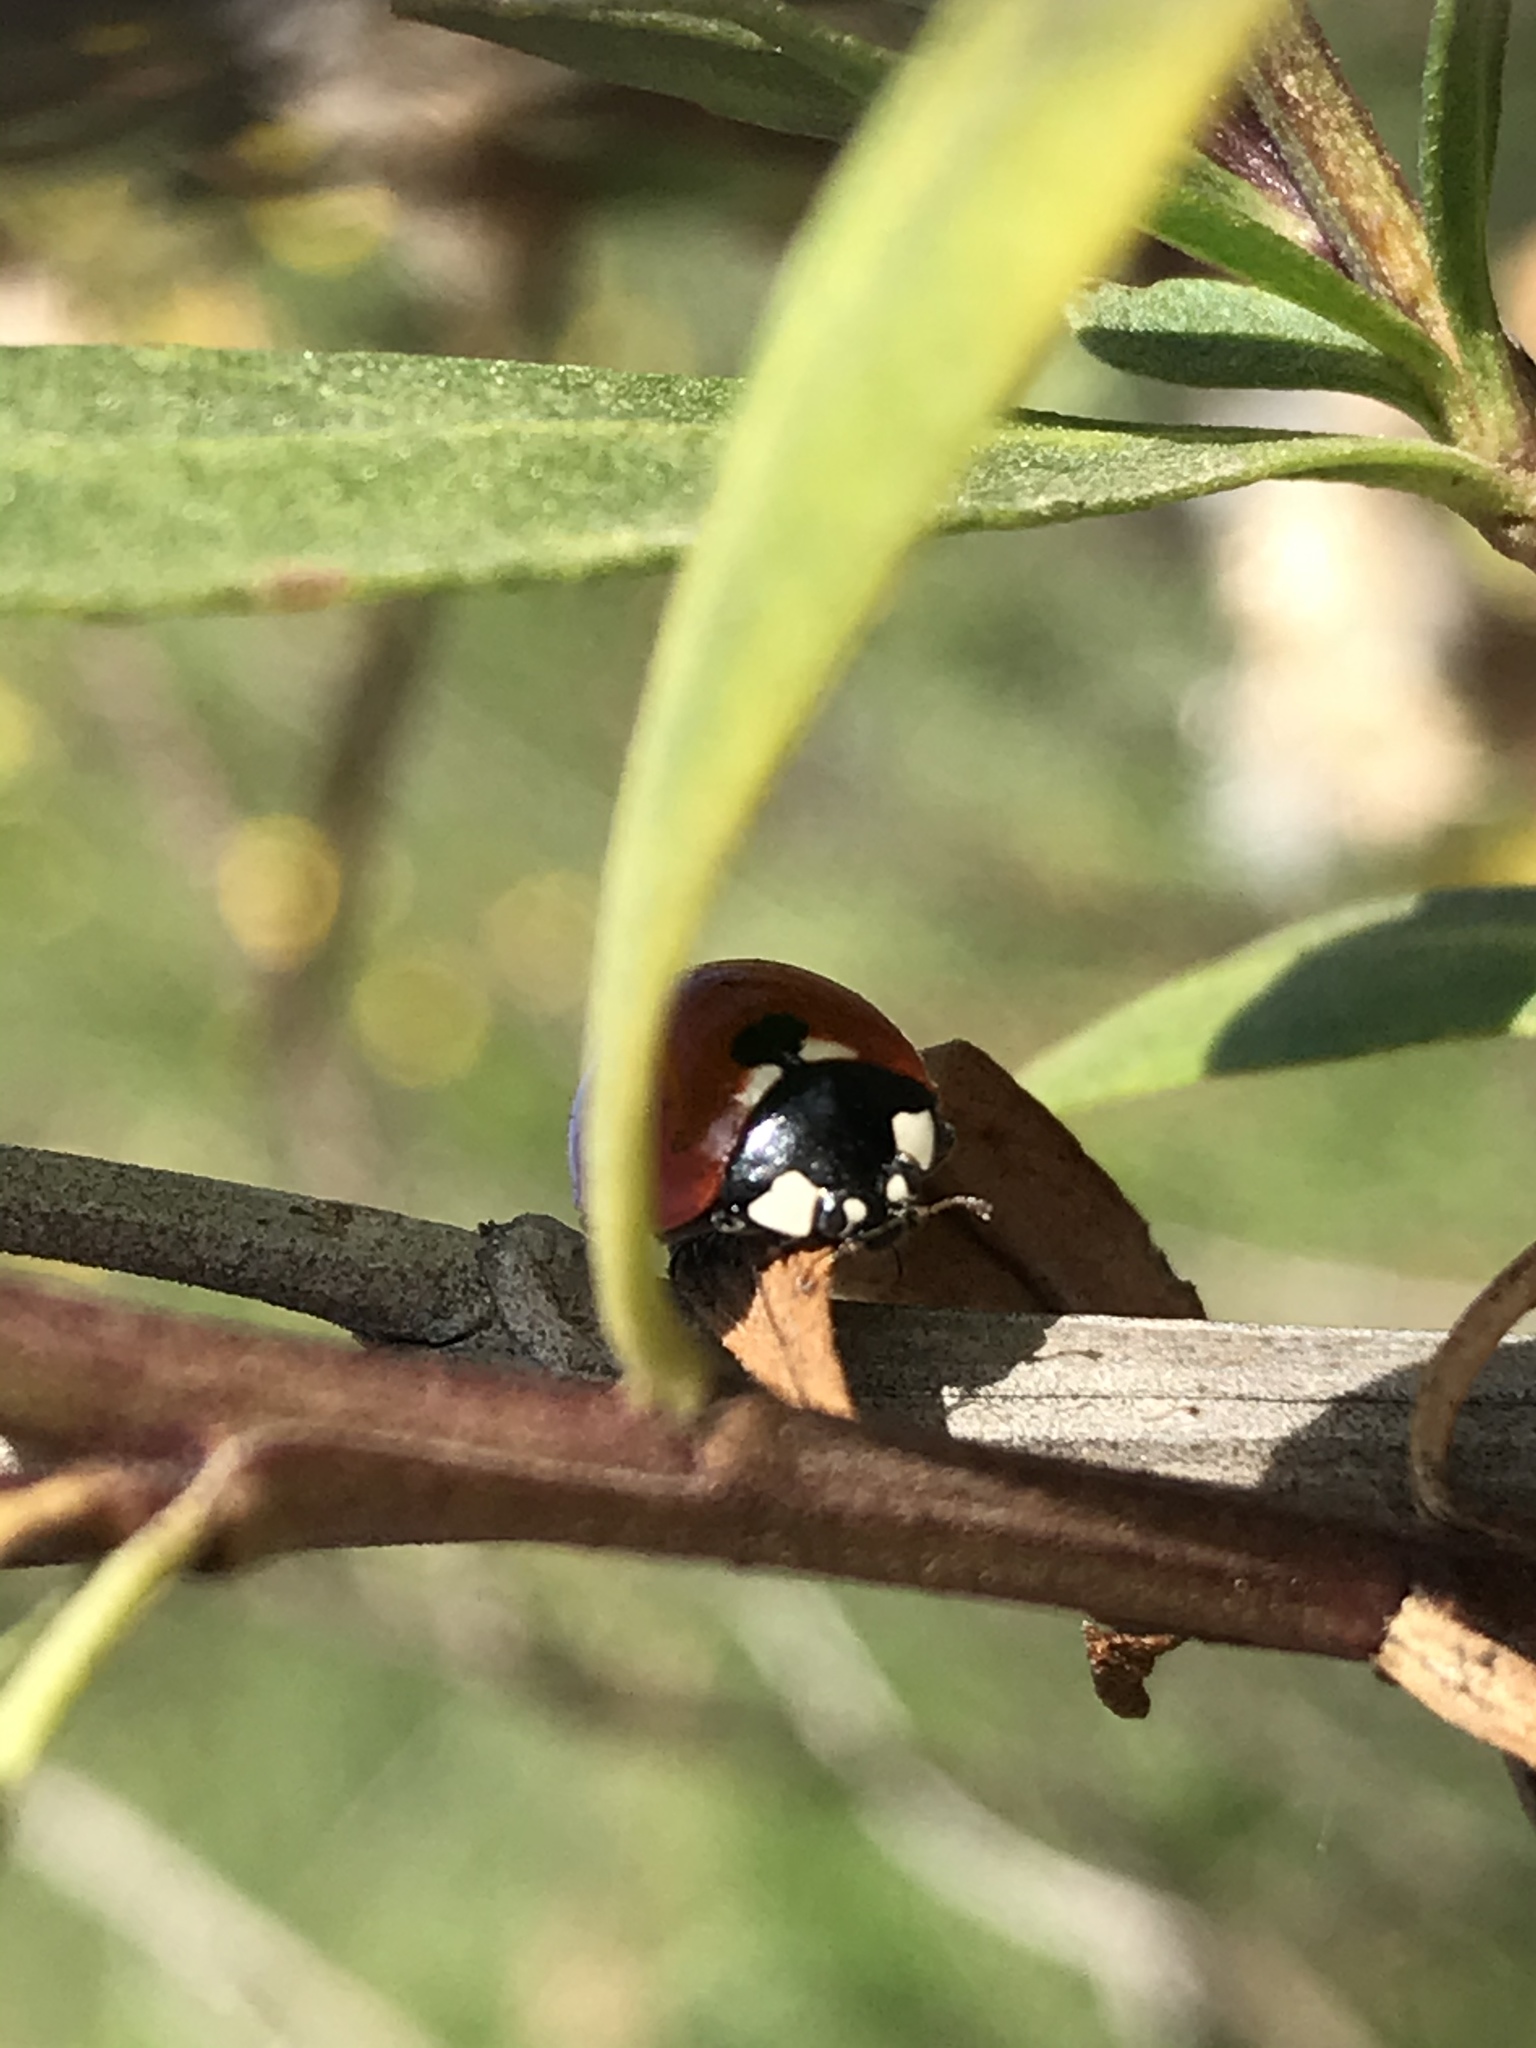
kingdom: Animalia
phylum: Arthropoda
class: Insecta
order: Coleoptera
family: Coccinellidae
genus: Coccinella
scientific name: Coccinella septempunctata
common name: Sevenspotted lady beetle
